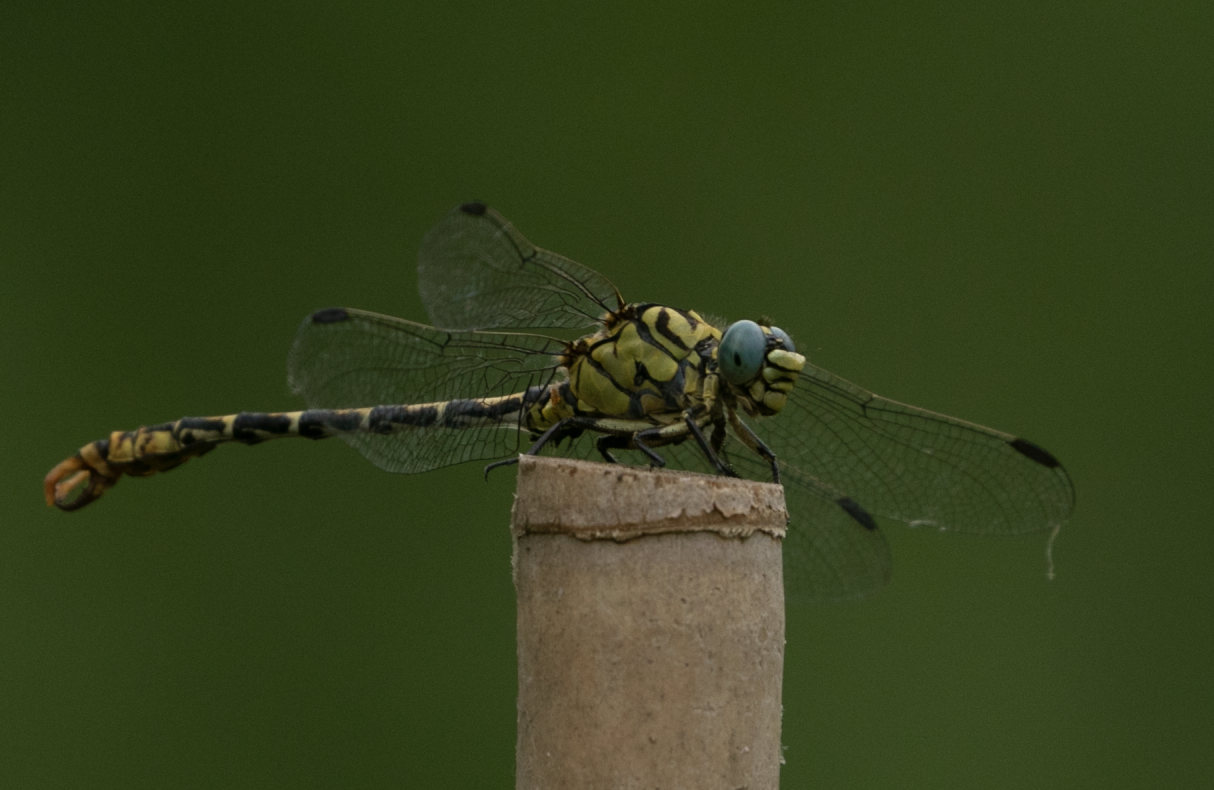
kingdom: Animalia
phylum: Arthropoda
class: Insecta
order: Odonata
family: Gomphidae
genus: Onychogomphus
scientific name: Onychogomphus forcipatus
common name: Small pincertail
